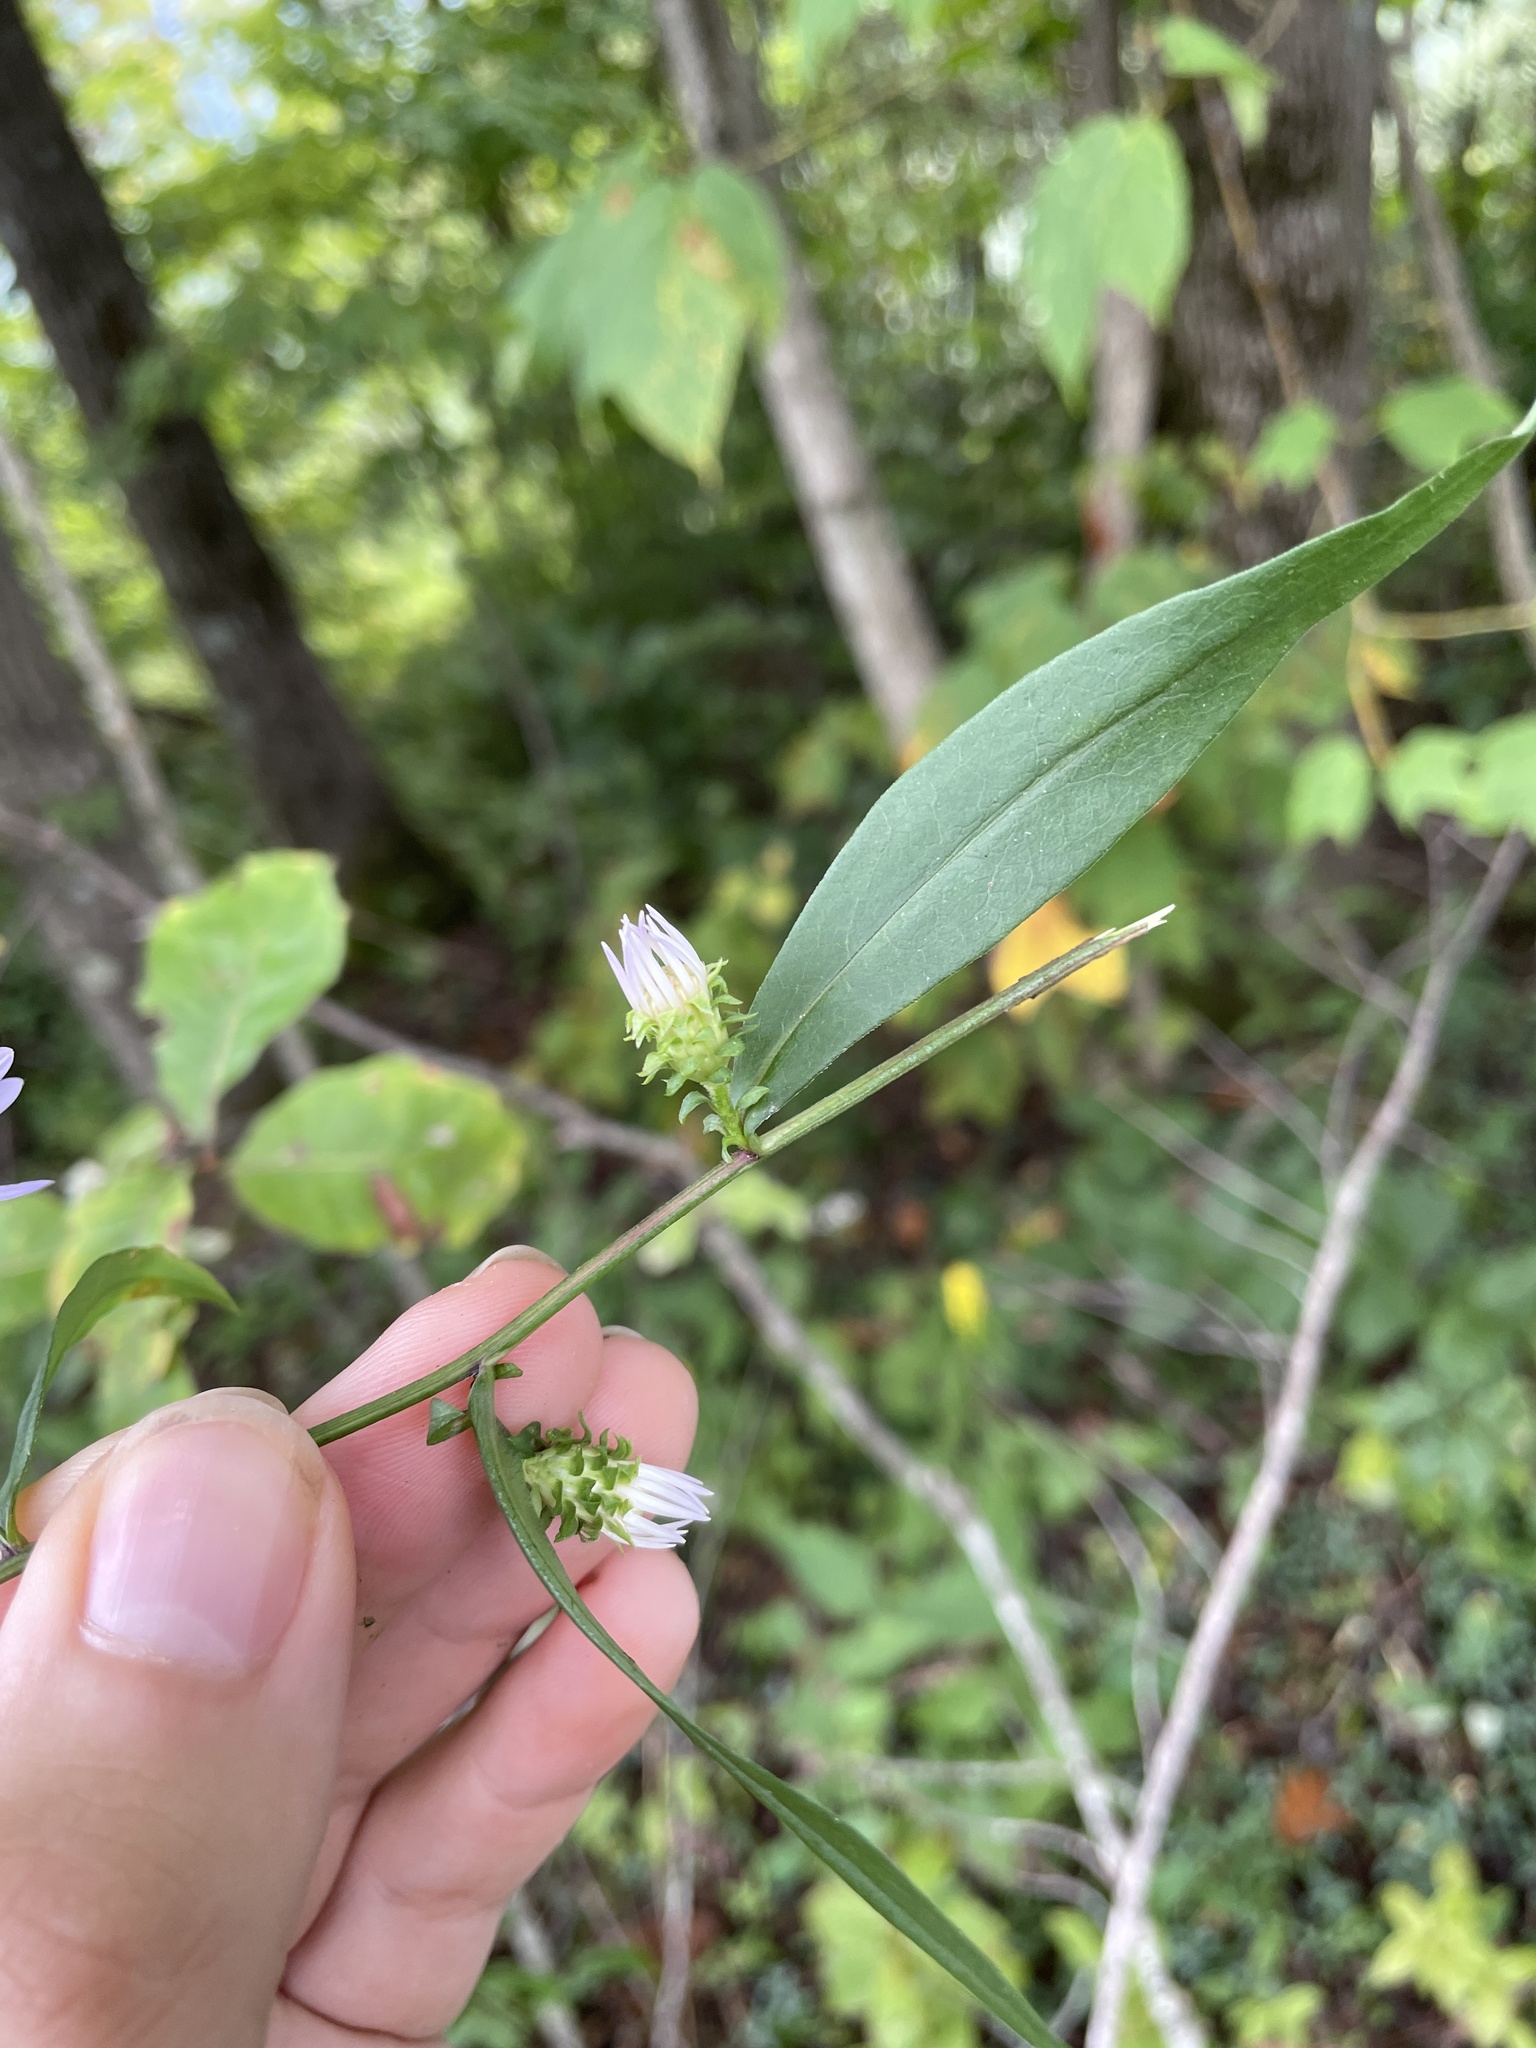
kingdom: Plantae
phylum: Tracheophyta
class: Magnoliopsida
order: Asterales
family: Asteraceae
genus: Symphyotrichum
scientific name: Symphyotrichum retroflexum
